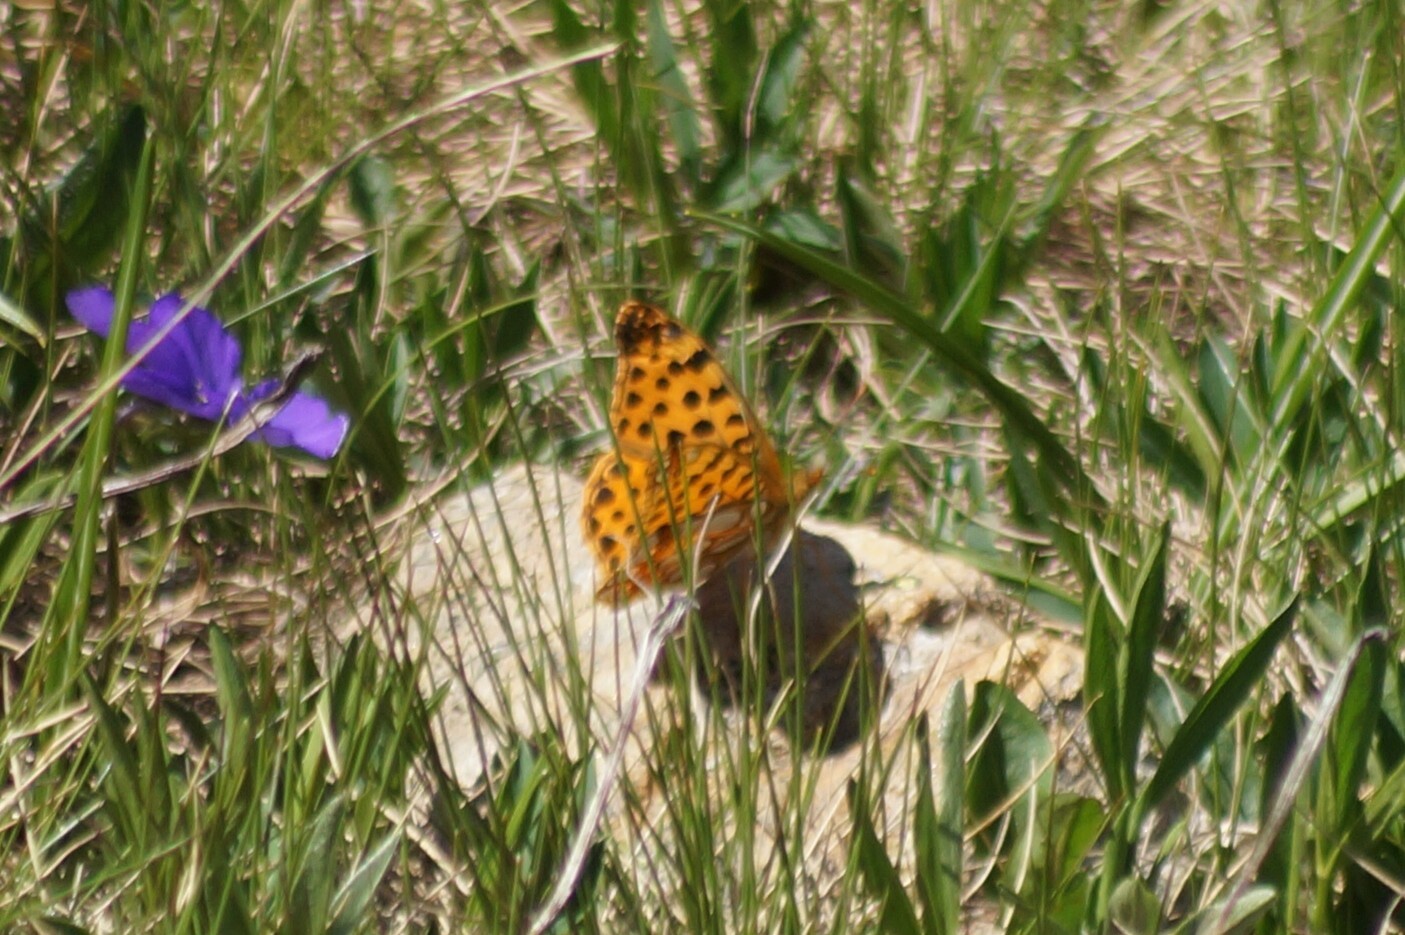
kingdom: Animalia
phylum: Arthropoda
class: Insecta
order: Lepidoptera
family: Nymphalidae
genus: Issoria
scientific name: Issoria lathonia
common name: Queen of spain fritillary
